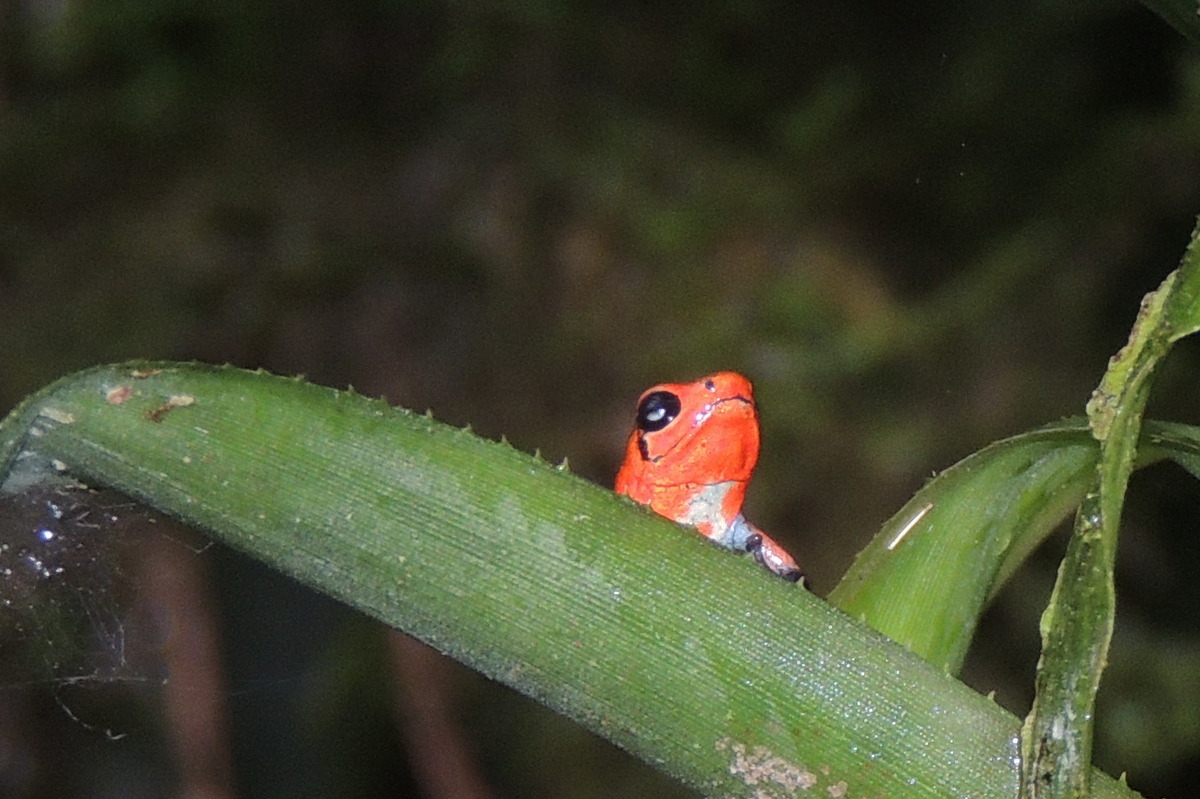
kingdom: Animalia
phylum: Chordata
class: Amphibia
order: Anura
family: Dendrobatidae
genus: Oophaga
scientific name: Oophaga pumilio
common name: Flaming poison frog
